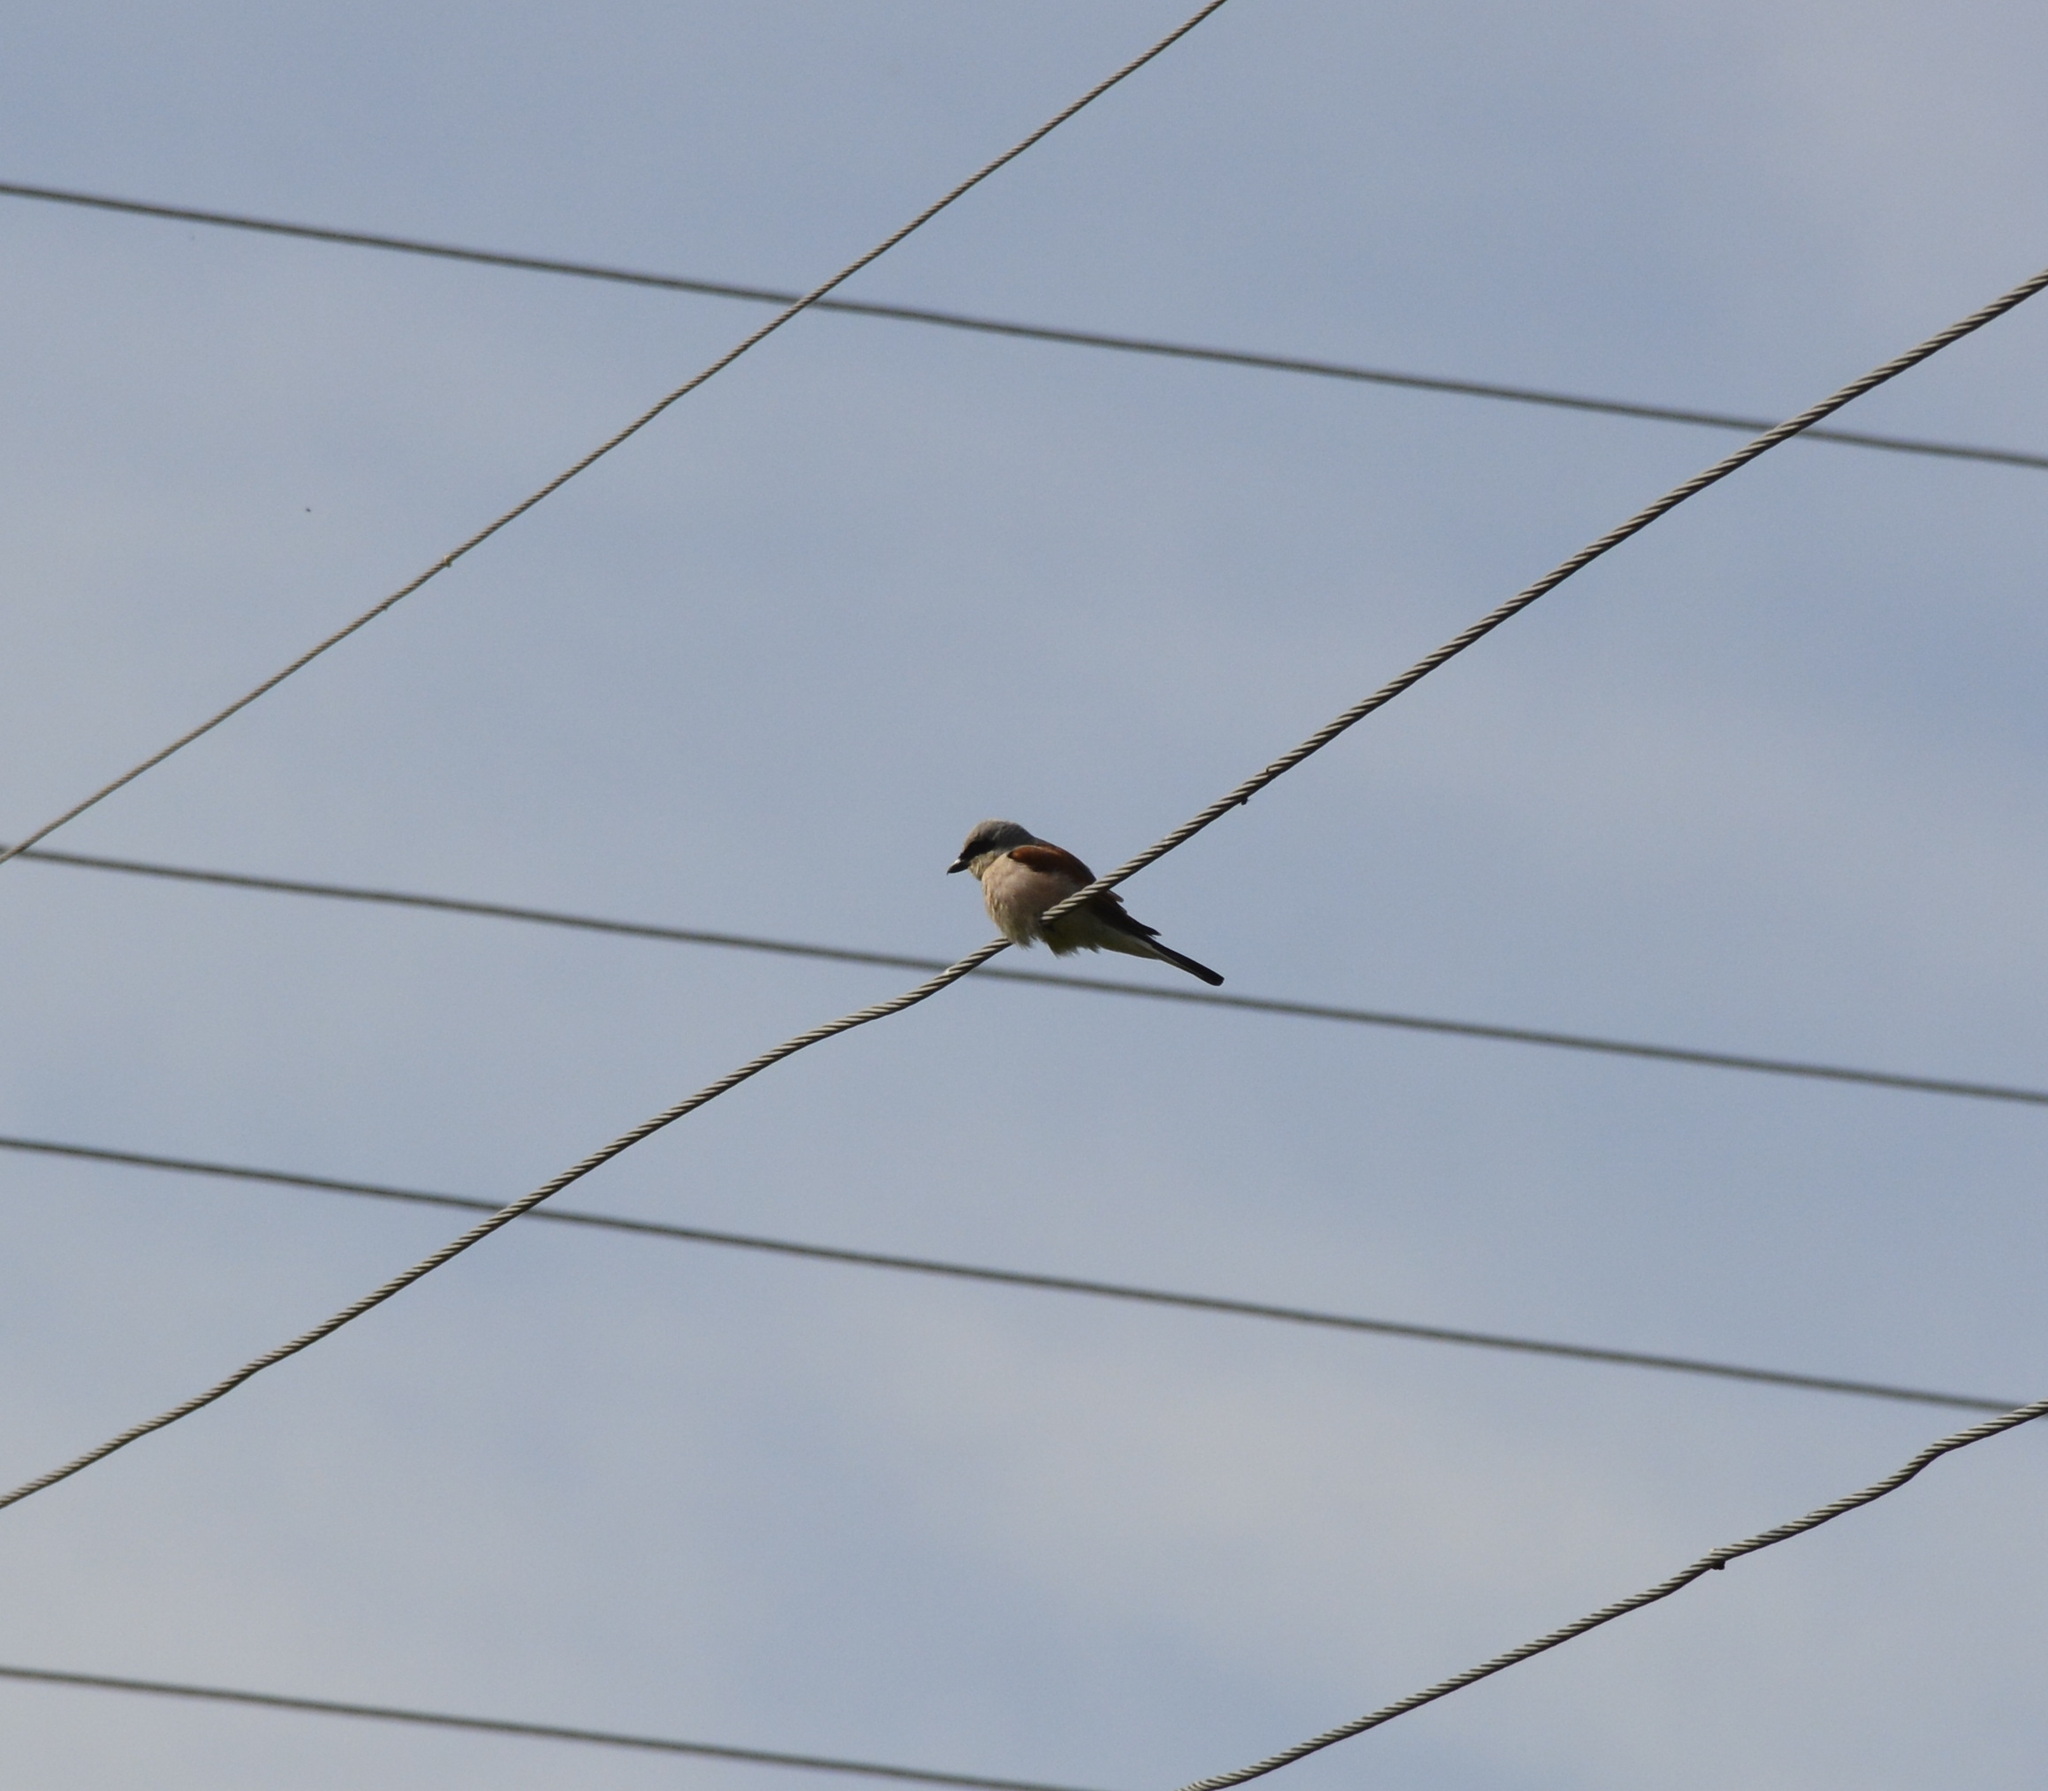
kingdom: Animalia
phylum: Chordata
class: Aves
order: Passeriformes
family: Laniidae
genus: Lanius
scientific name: Lanius collurio
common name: Red-backed shrike
